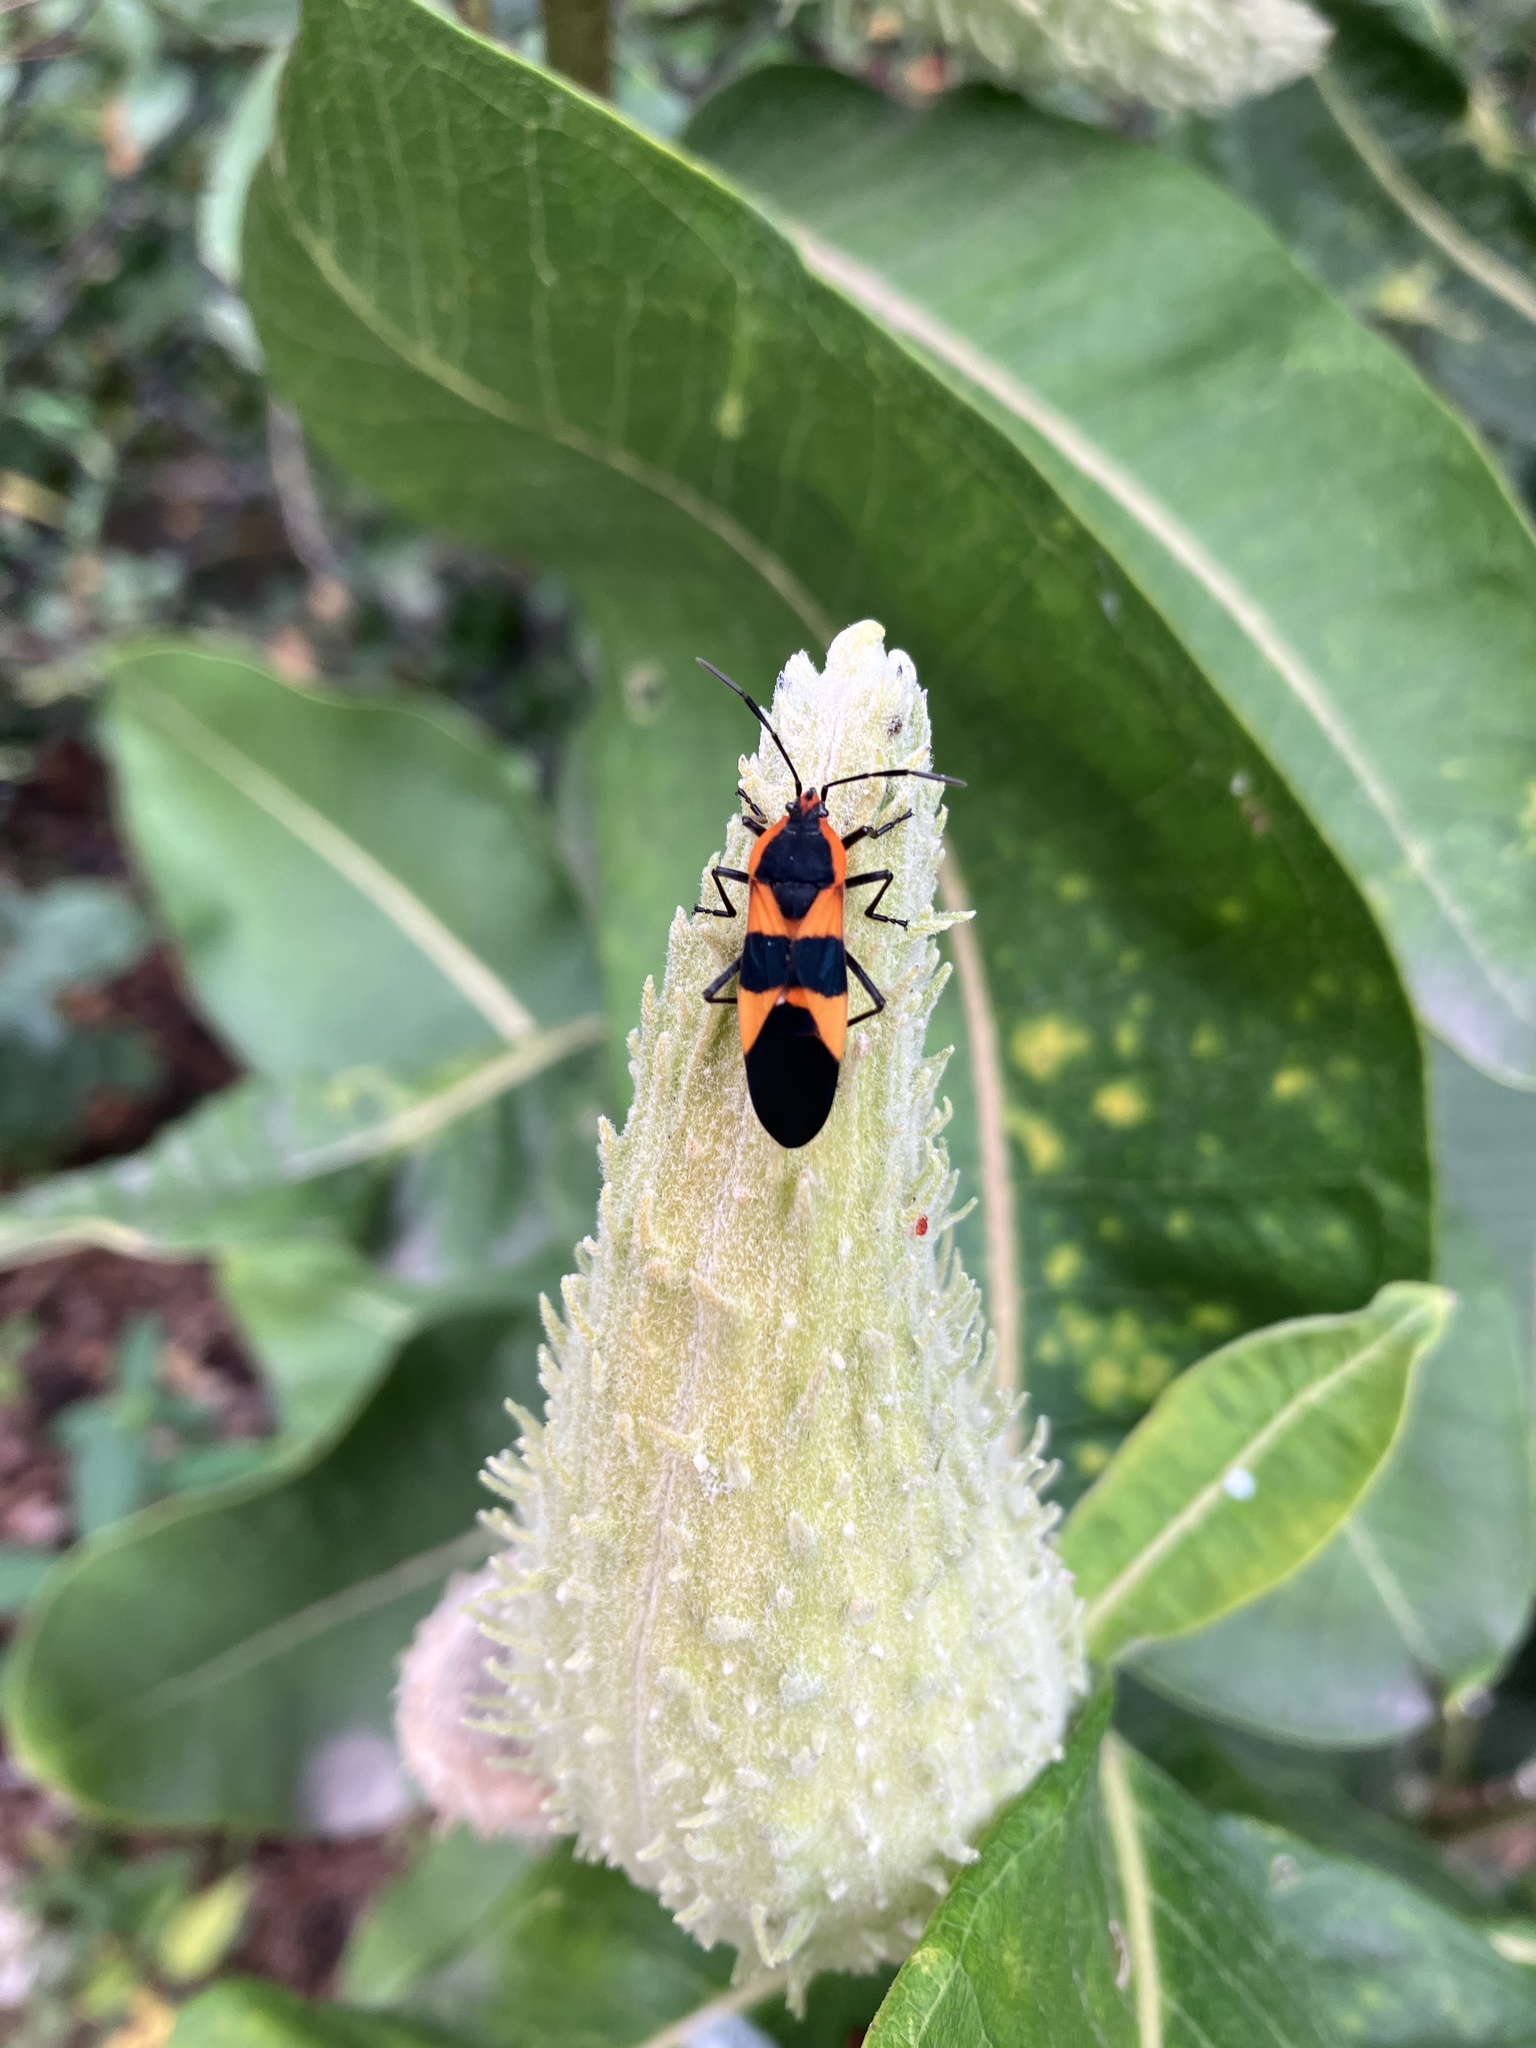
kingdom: Animalia
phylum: Arthropoda
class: Insecta
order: Hemiptera
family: Lygaeidae
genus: Oncopeltus
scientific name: Oncopeltus fasciatus
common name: Large milkweed bug
